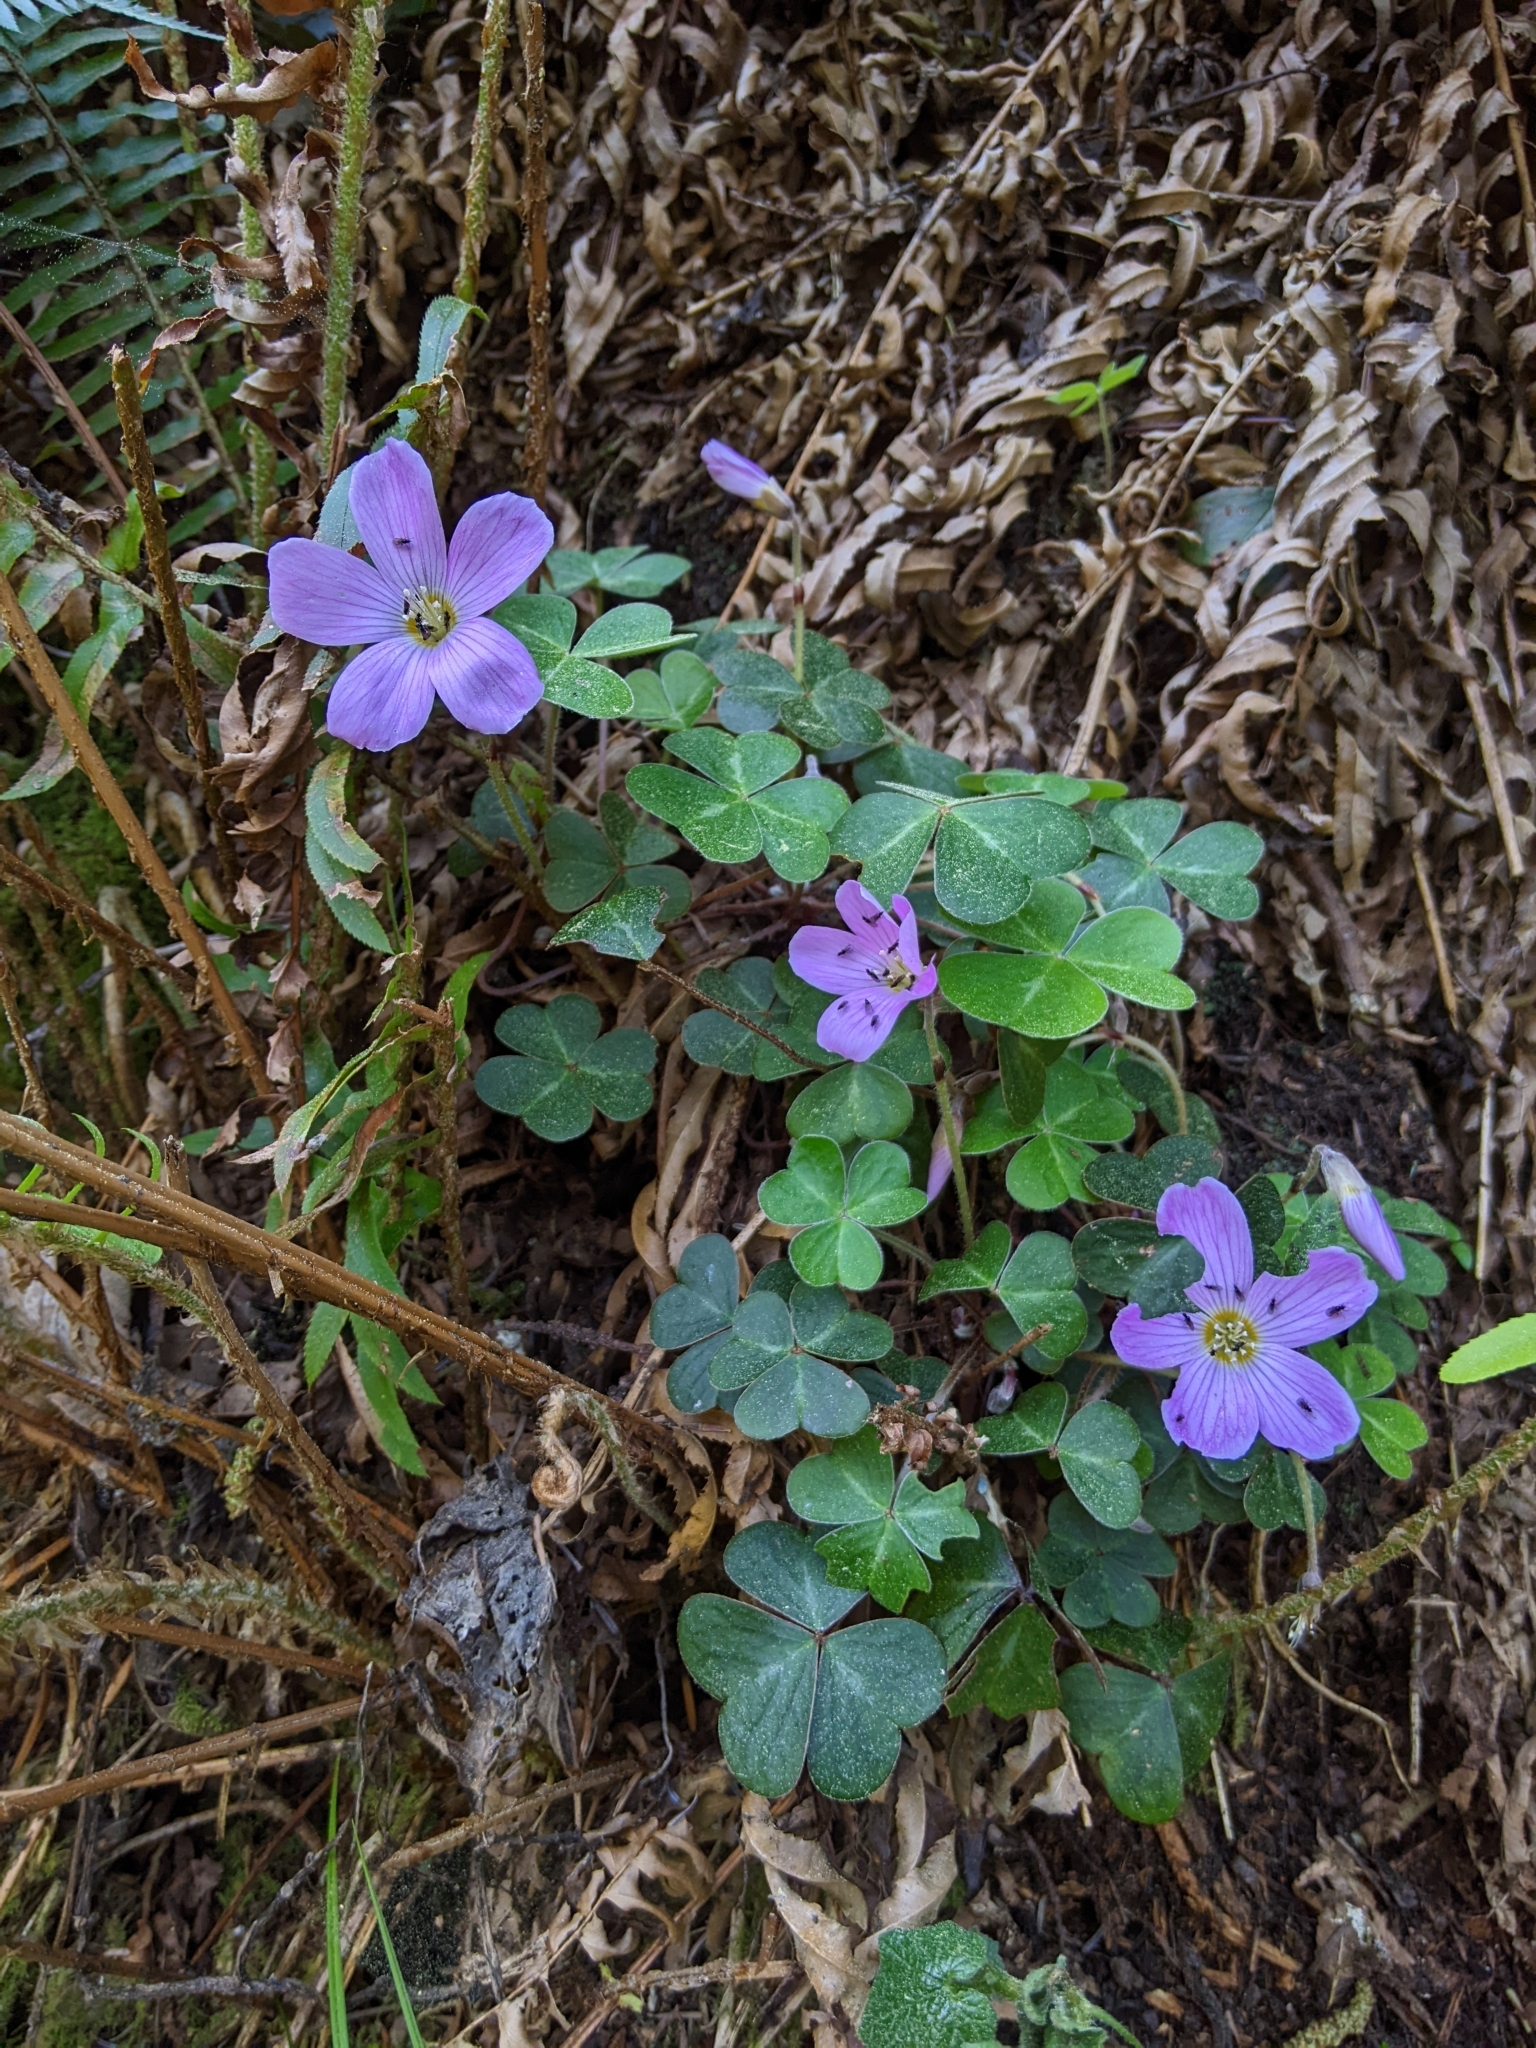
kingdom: Plantae
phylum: Tracheophyta
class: Magnoliopsida
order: Oxalidales
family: Oxalidaceae
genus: Oxalis
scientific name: Oxalis oregana
